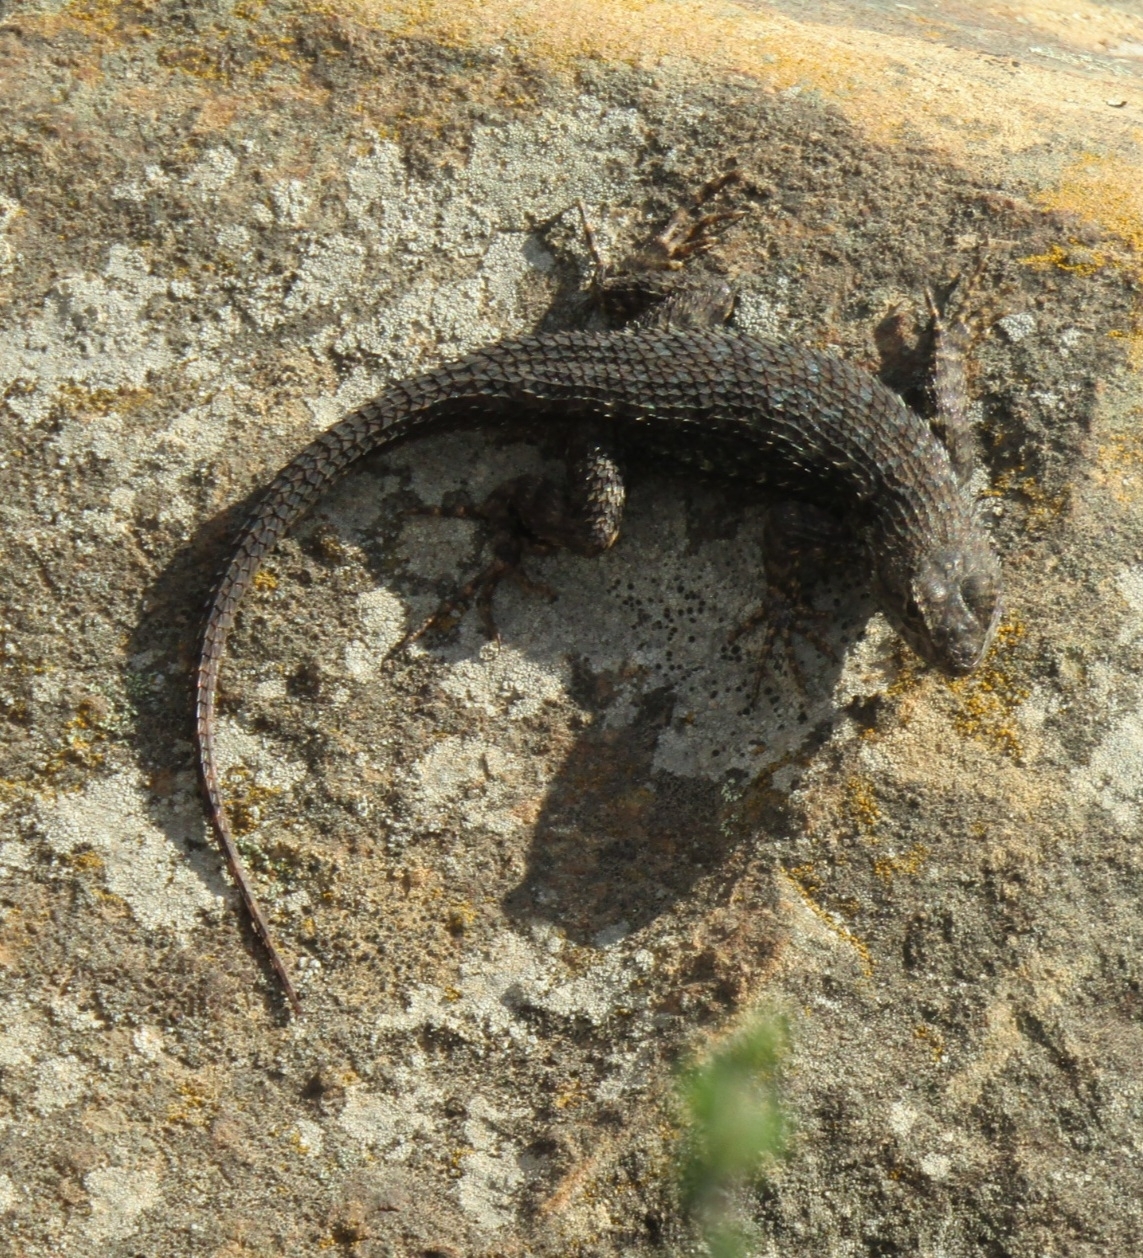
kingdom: Animalia
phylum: Chordata
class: Squamata
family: Phrynosomatidae
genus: Sceloporus
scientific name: Sceloporus occidentalis
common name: Western fence lizard
